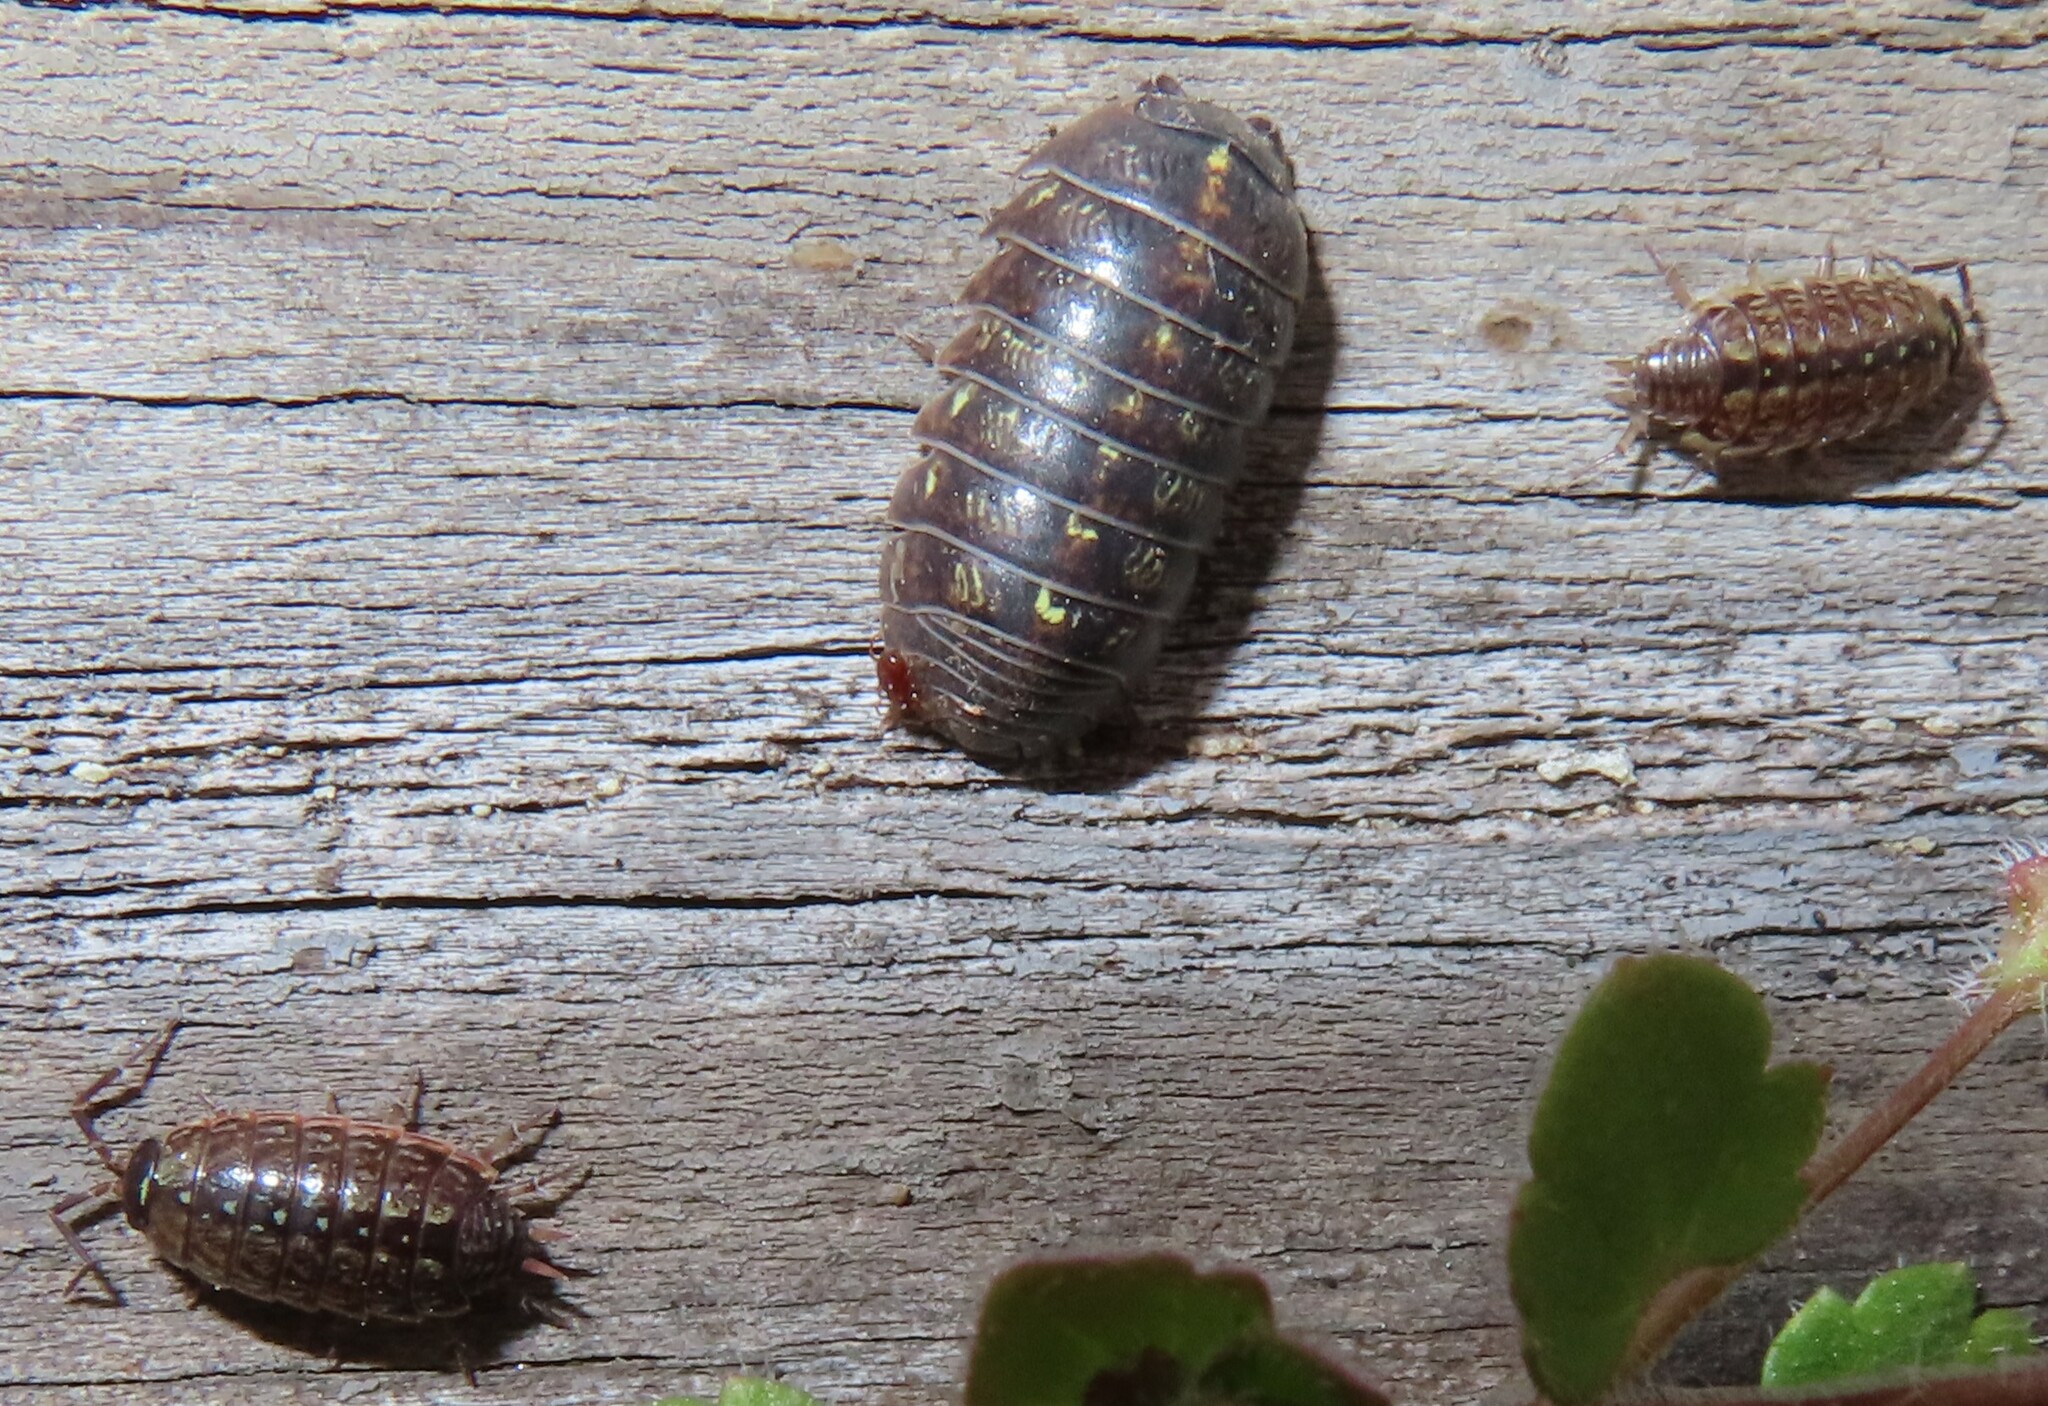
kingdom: Animalia
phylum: Arthropoda
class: Malacostraca
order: Isopoda
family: Philosciidae
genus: Philoscia
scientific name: Philoscia muscorum
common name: Common striped woodlouse
